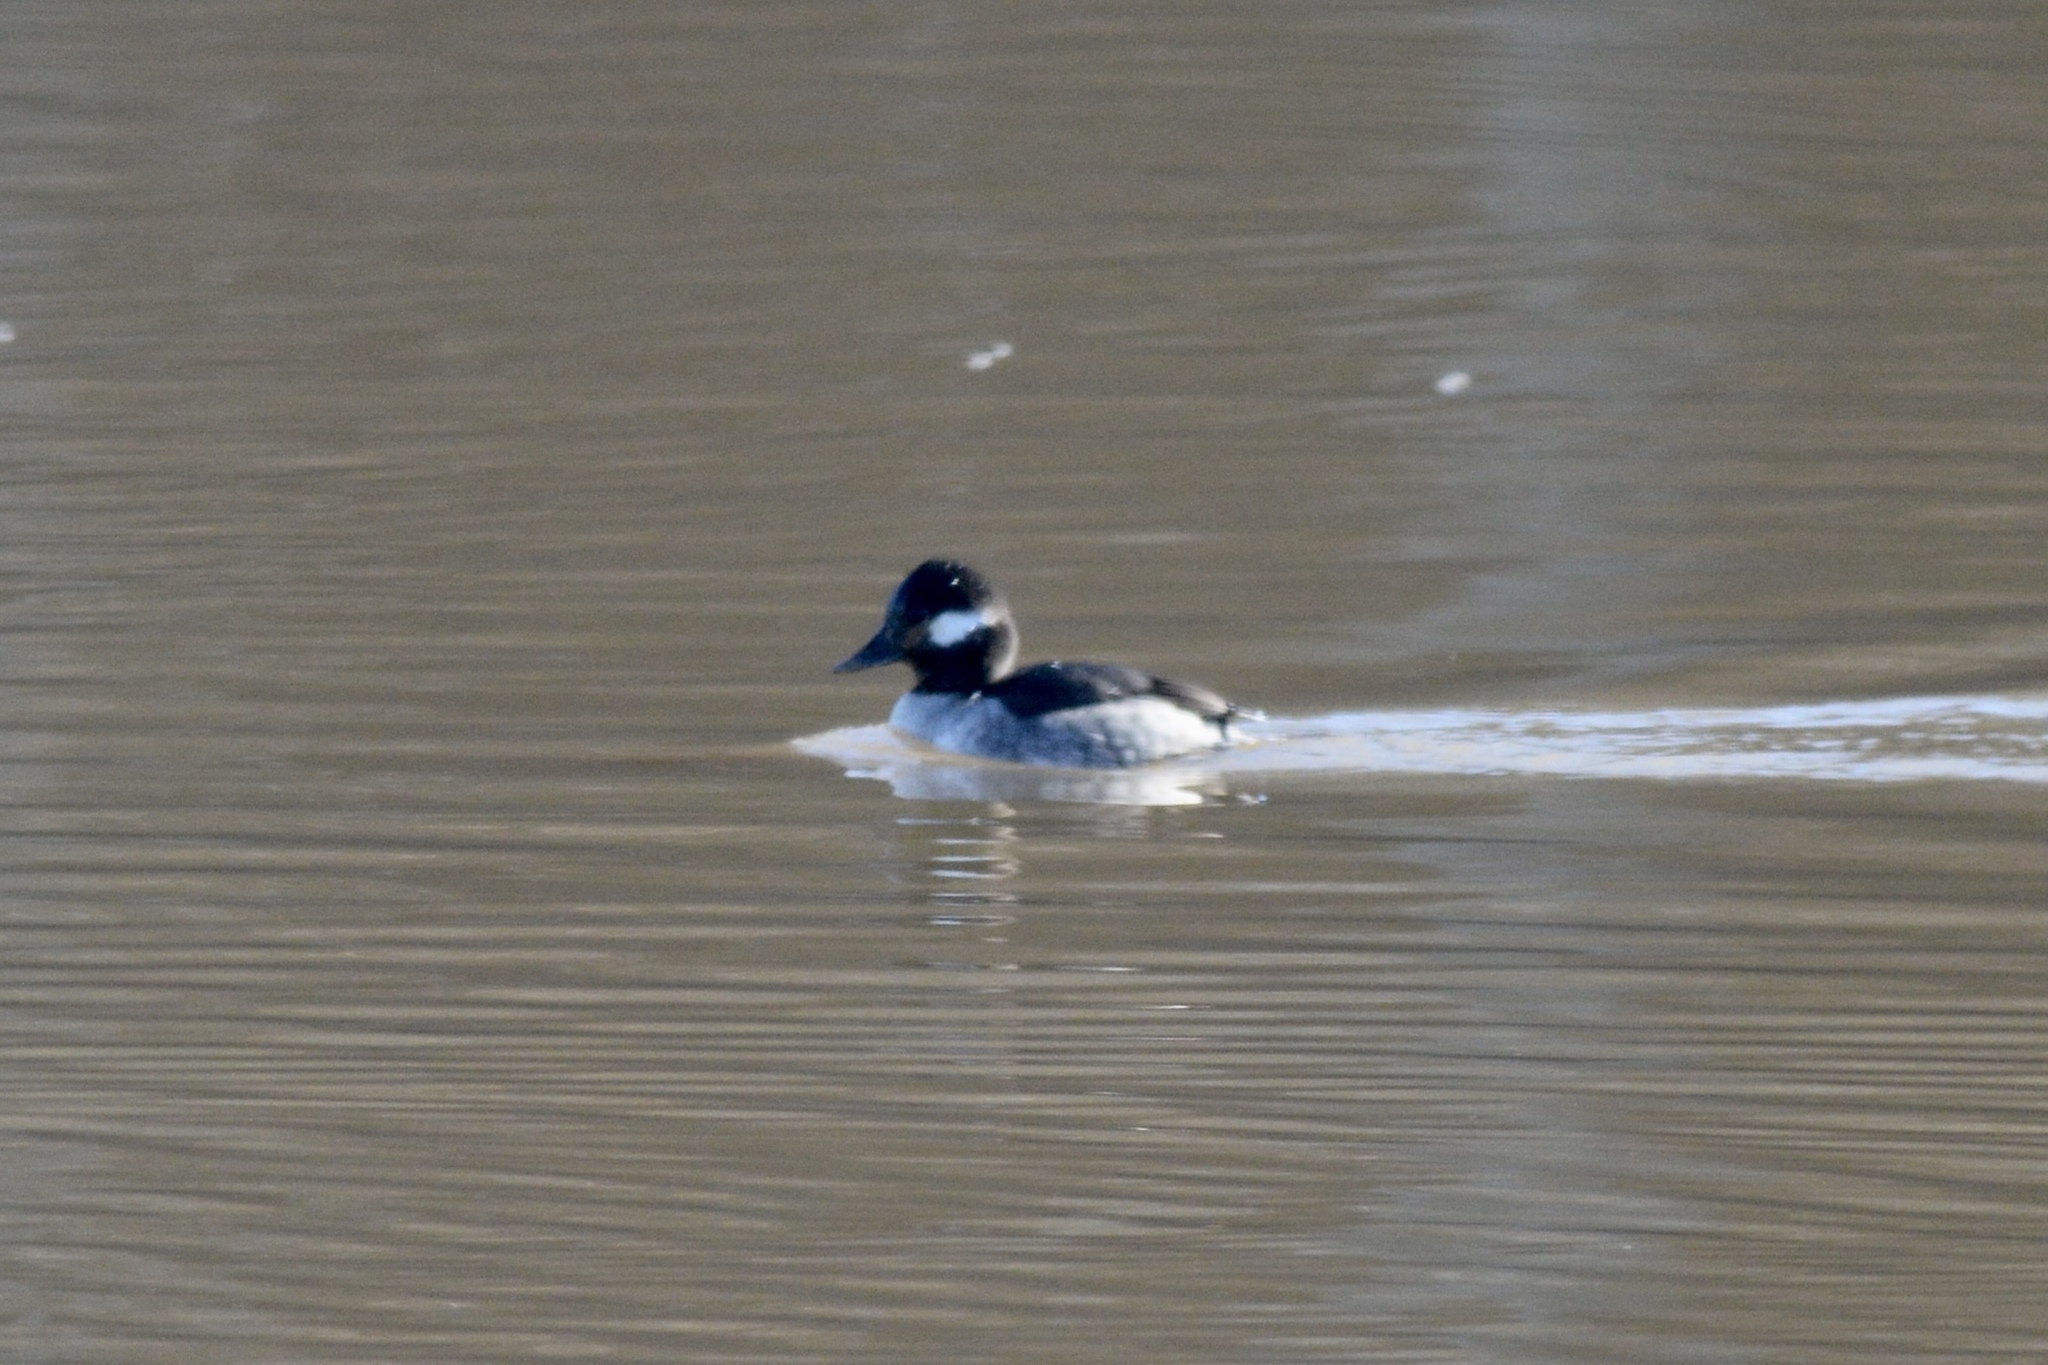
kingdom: Animalia
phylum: Chordata
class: Aves
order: Anseriformes
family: Anatidae
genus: Bucephala
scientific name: Bucephala albeola
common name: Bufflehead
